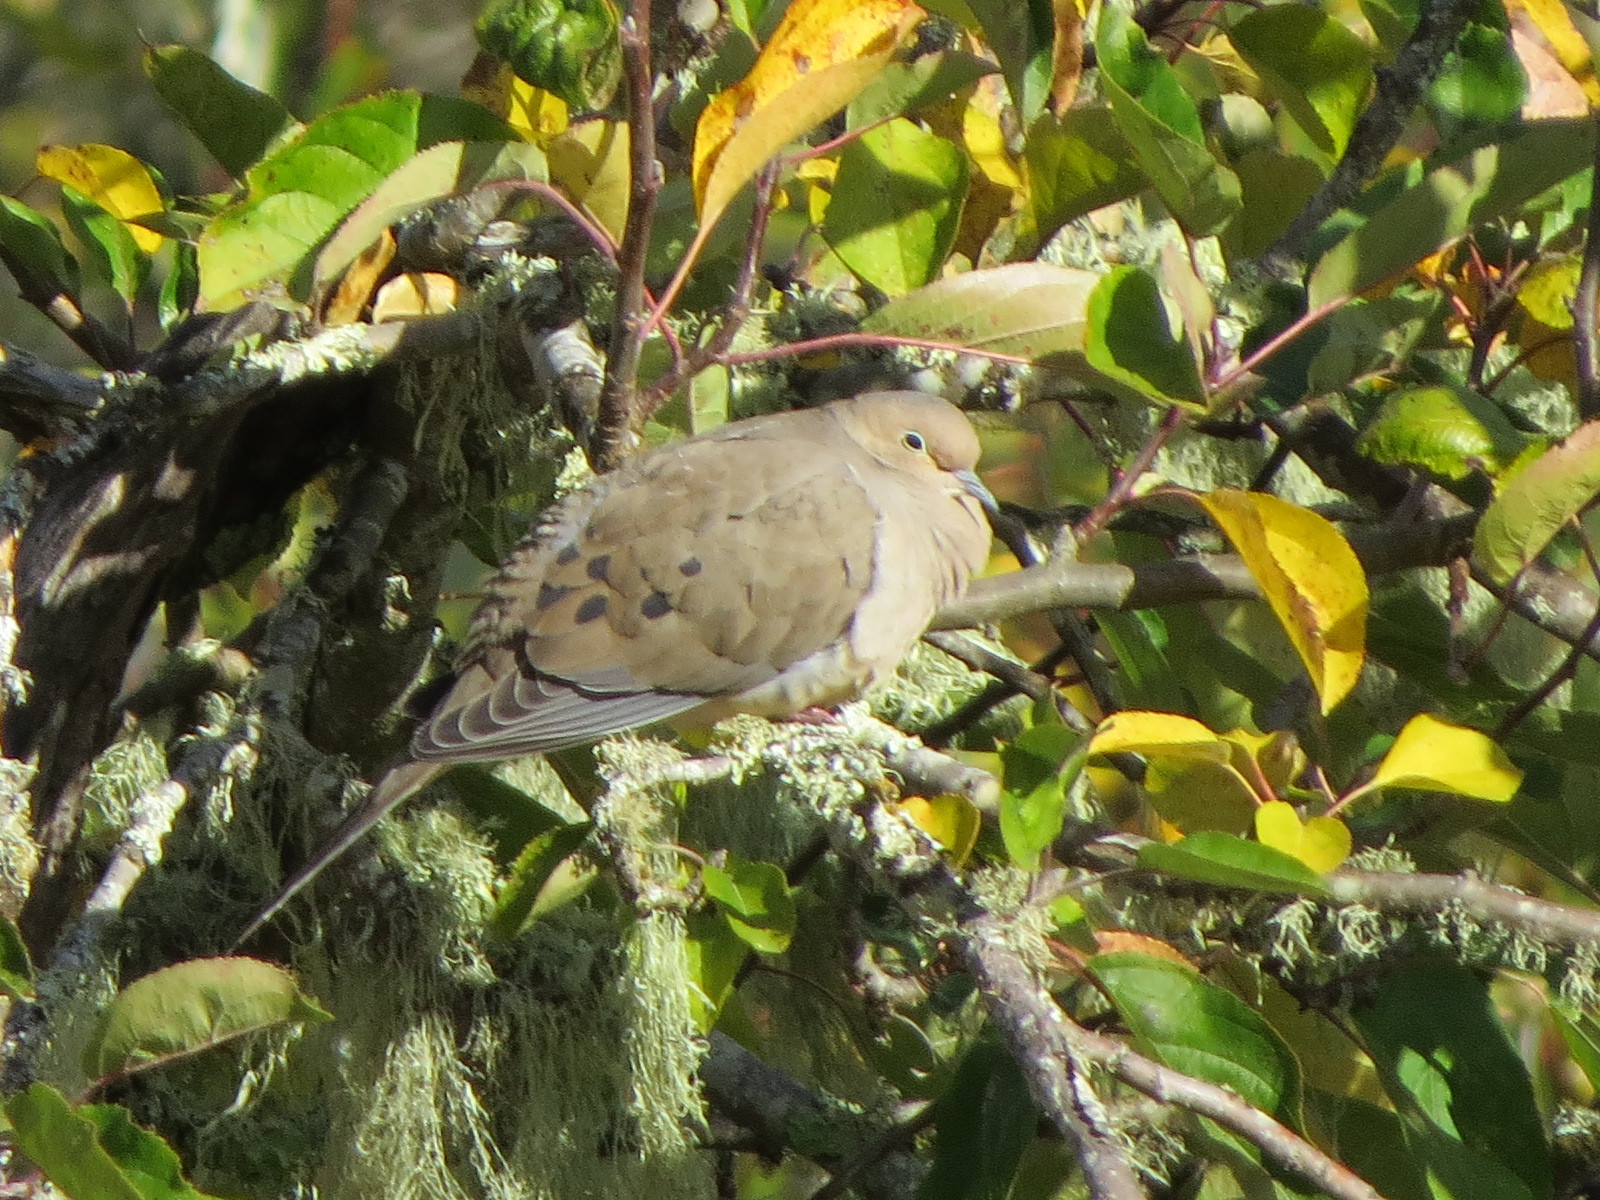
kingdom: Animalia
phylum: Chordata
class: Aves
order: Columbiformes
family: Columbidae
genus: Zenaida
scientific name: Zenaida macroura
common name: Mourning dove
